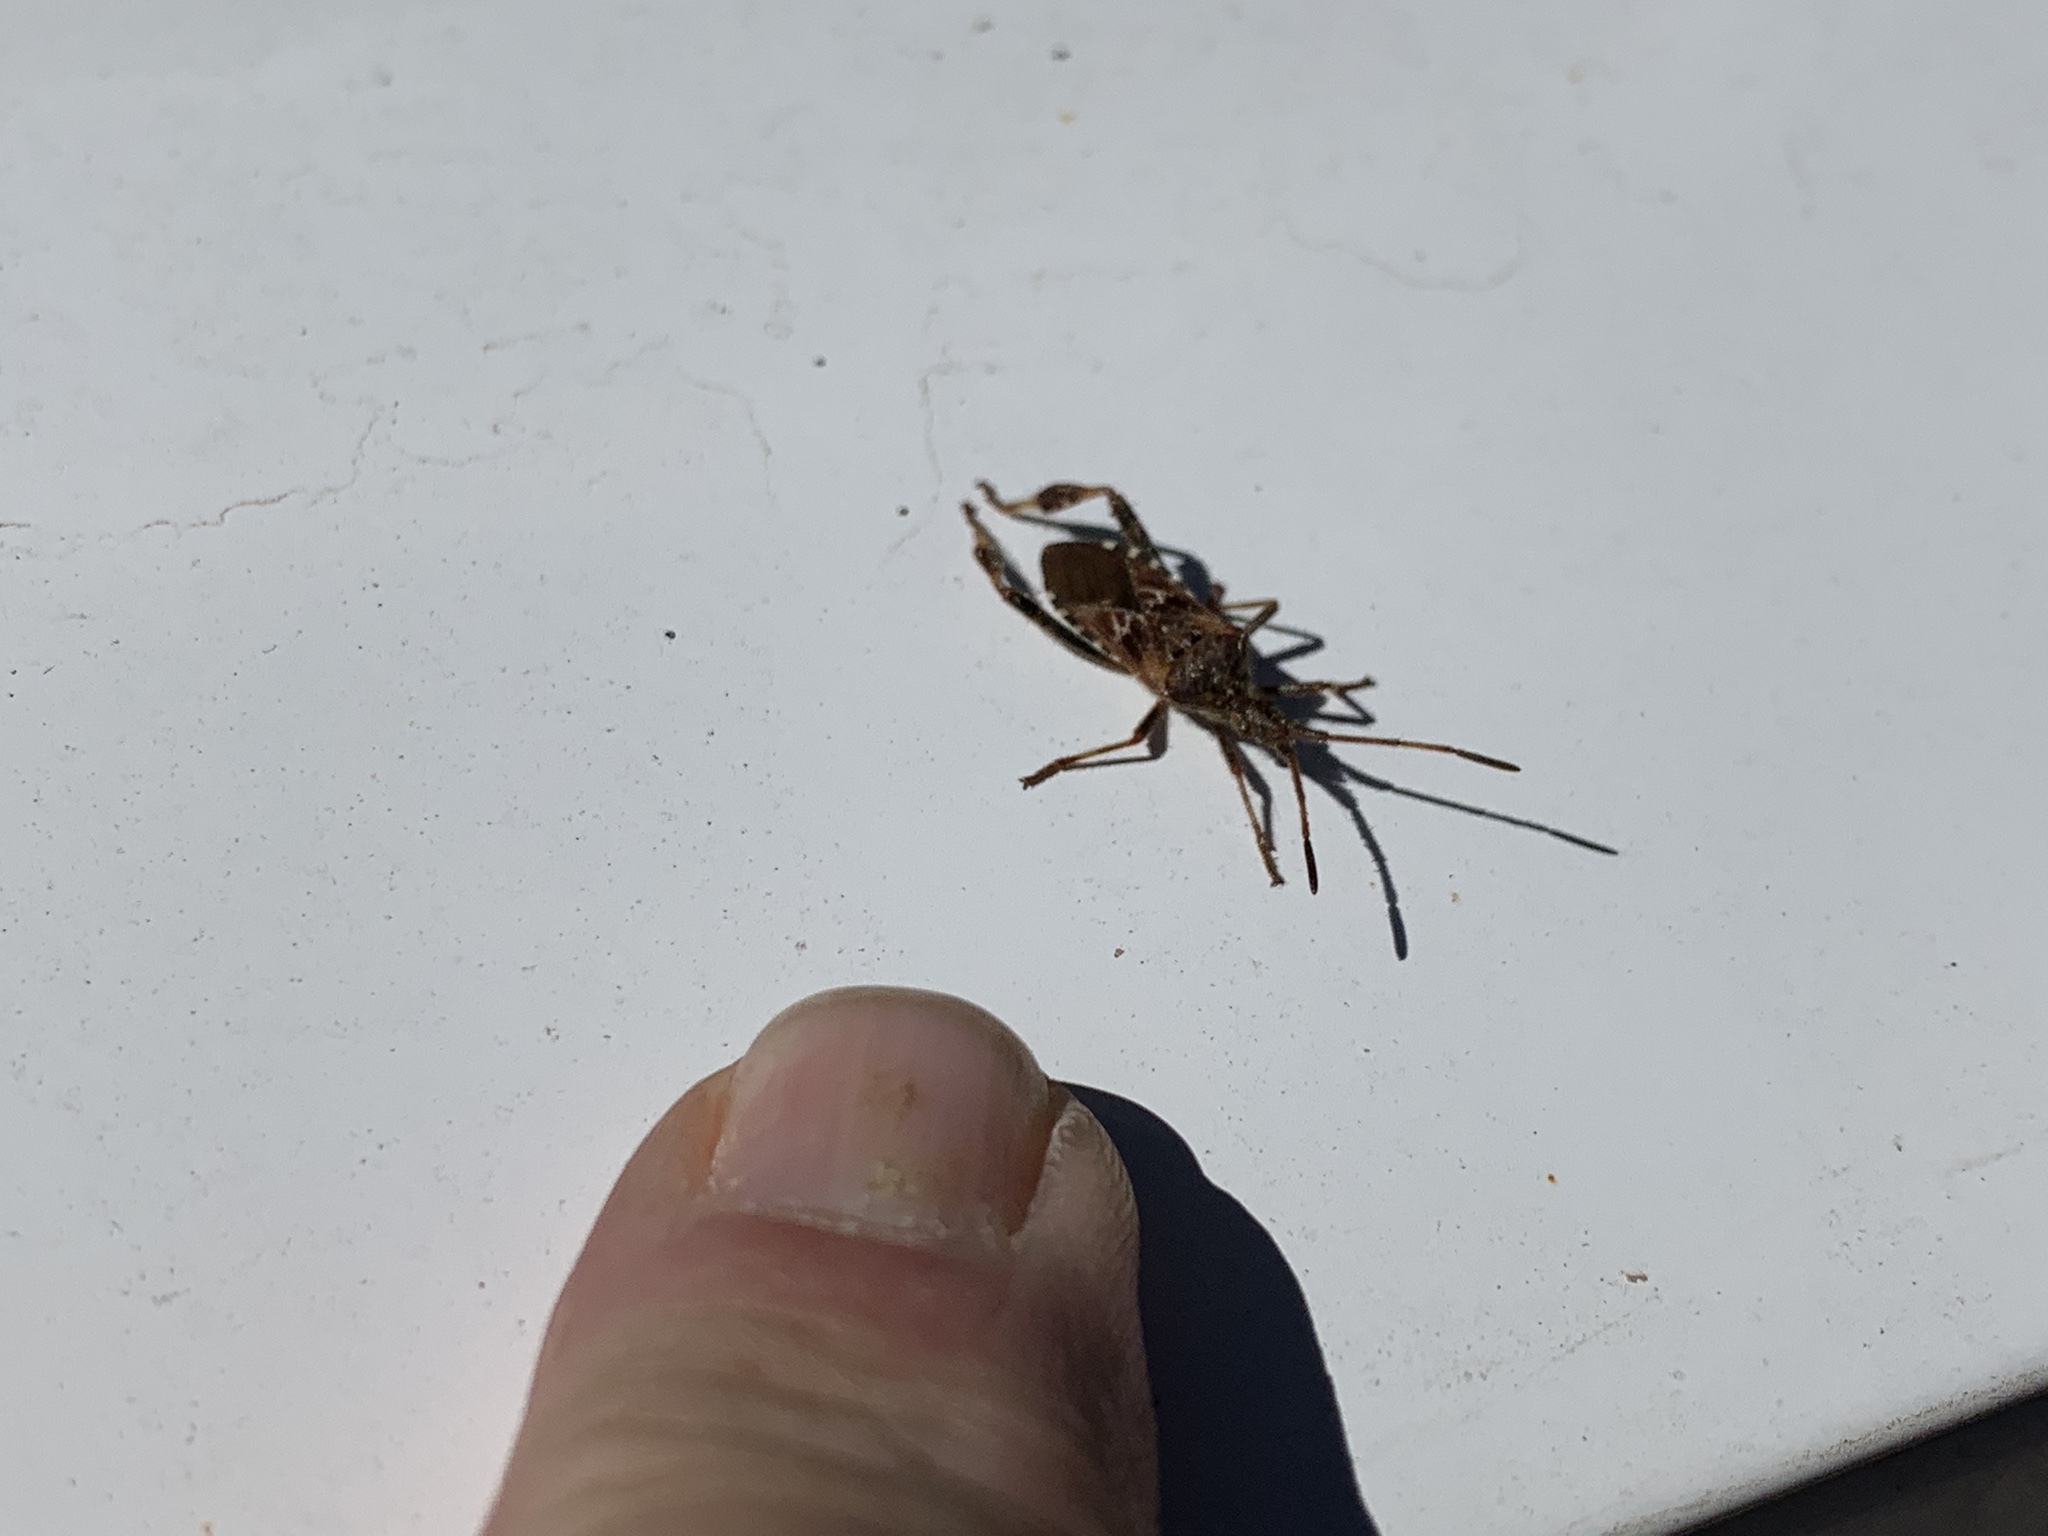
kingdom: Animalia
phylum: Arthropoda
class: Insecta
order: Hemiptera
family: Coreidae
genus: Leptoglossus
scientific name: Leptoglossus occidentalis
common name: Western conifer-seed bug
